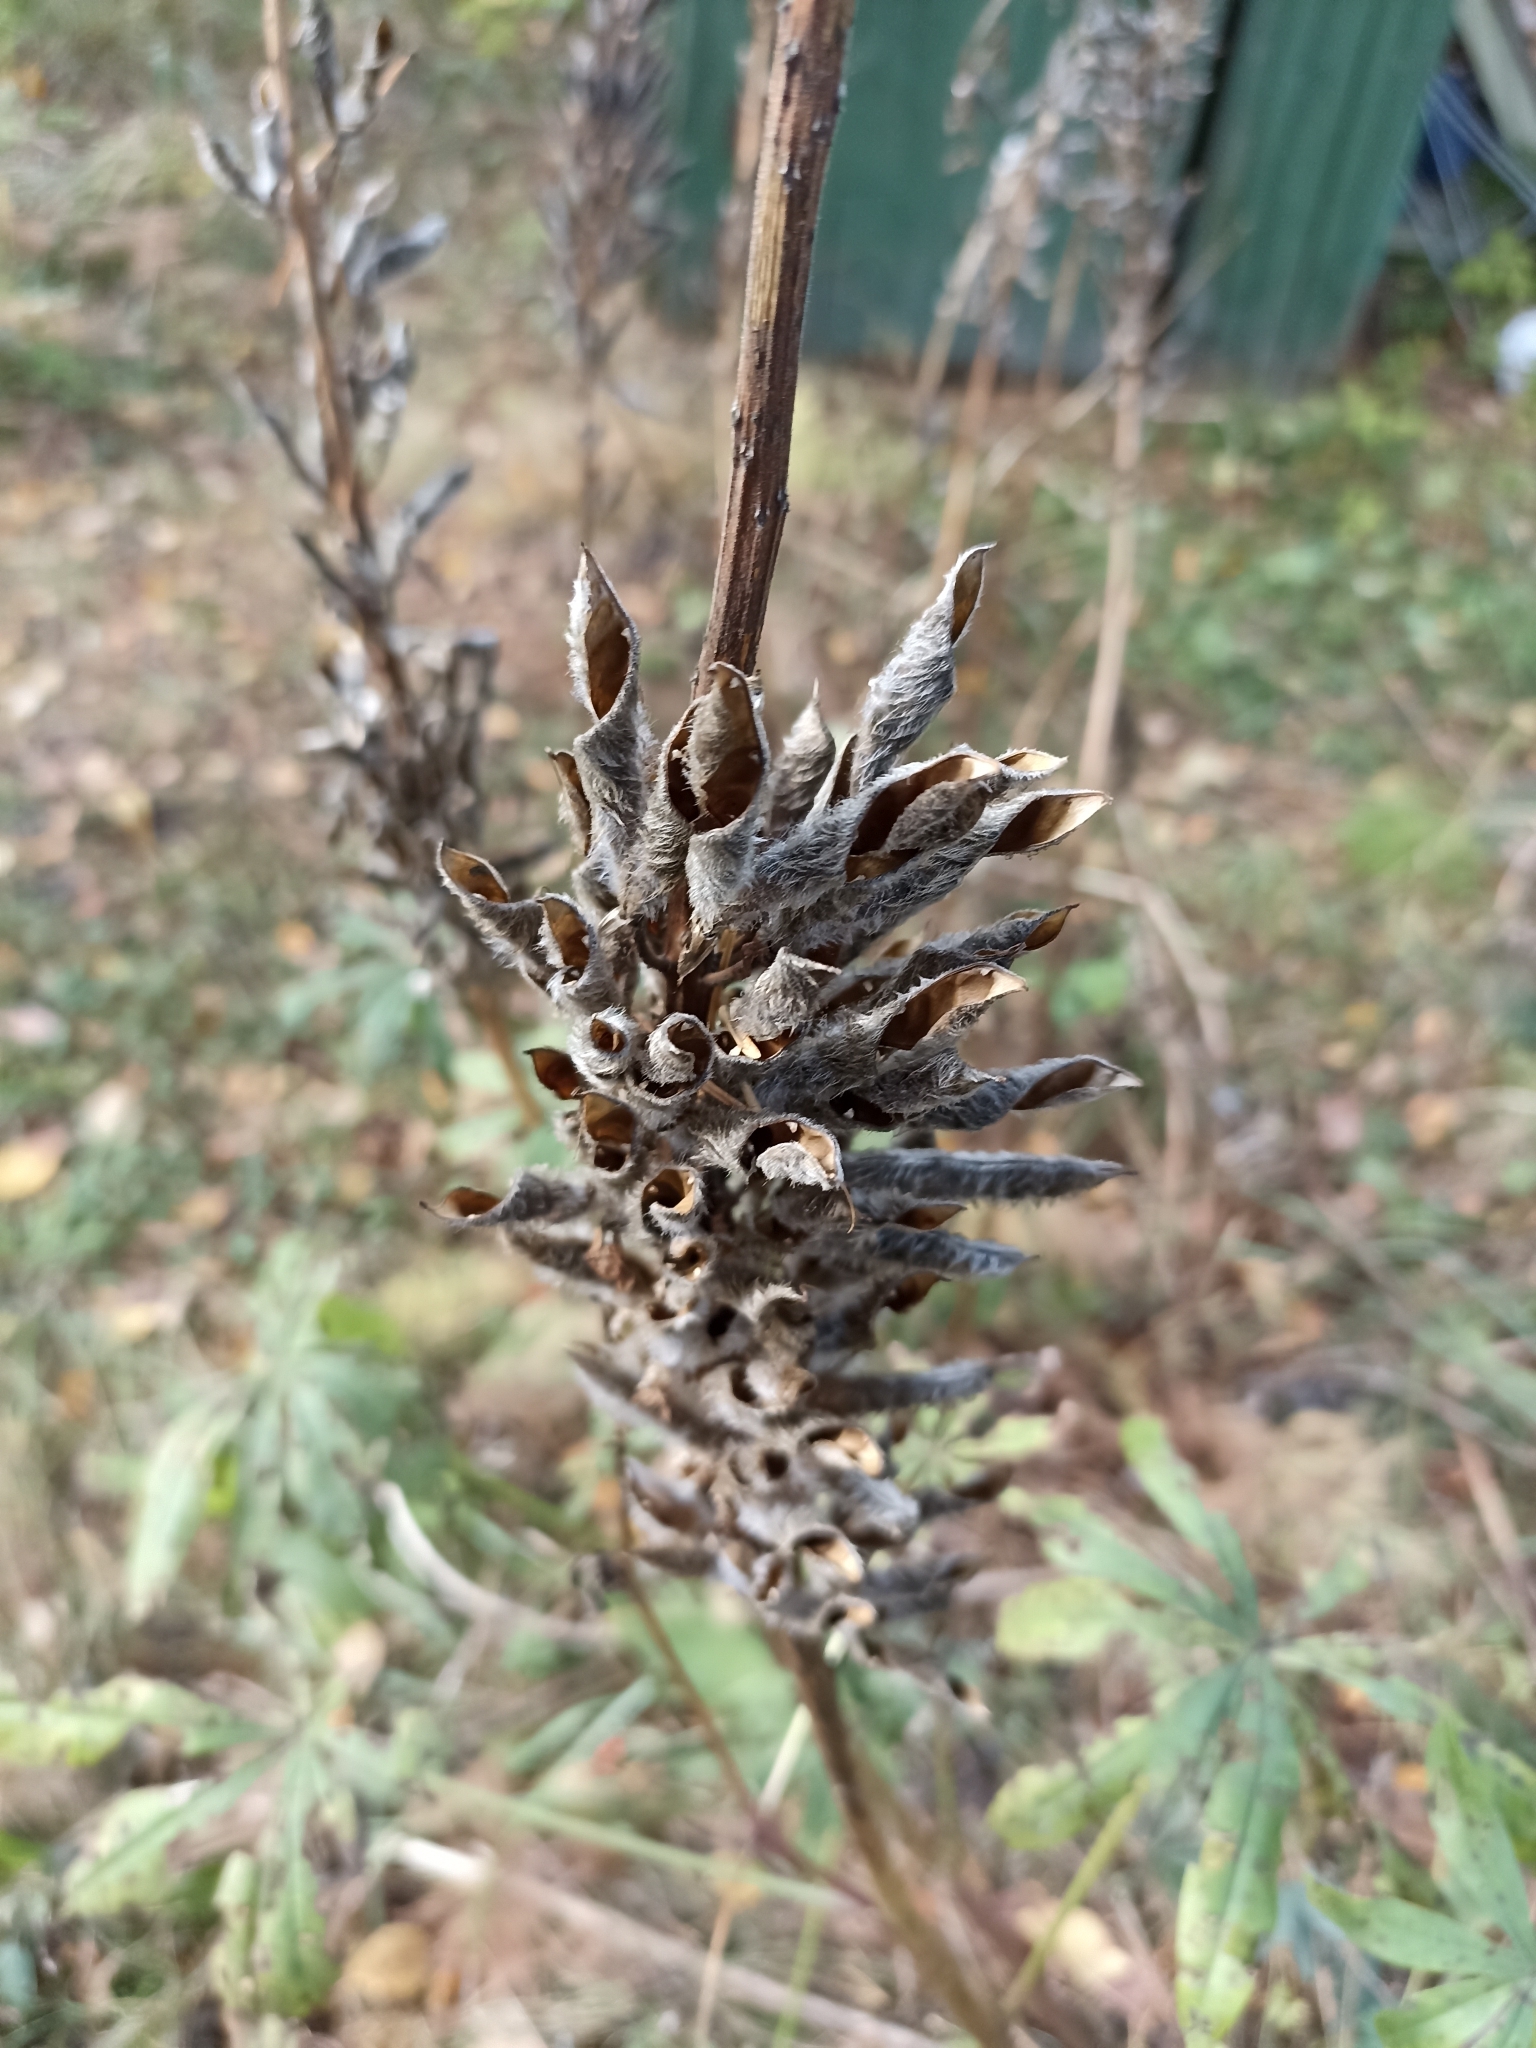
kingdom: Plantae
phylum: Tracheophyta
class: Magnoliopsida
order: Fabales
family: Fabaceae
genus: Lupinus
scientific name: Lupinus polyphyllus
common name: Garden lupin
